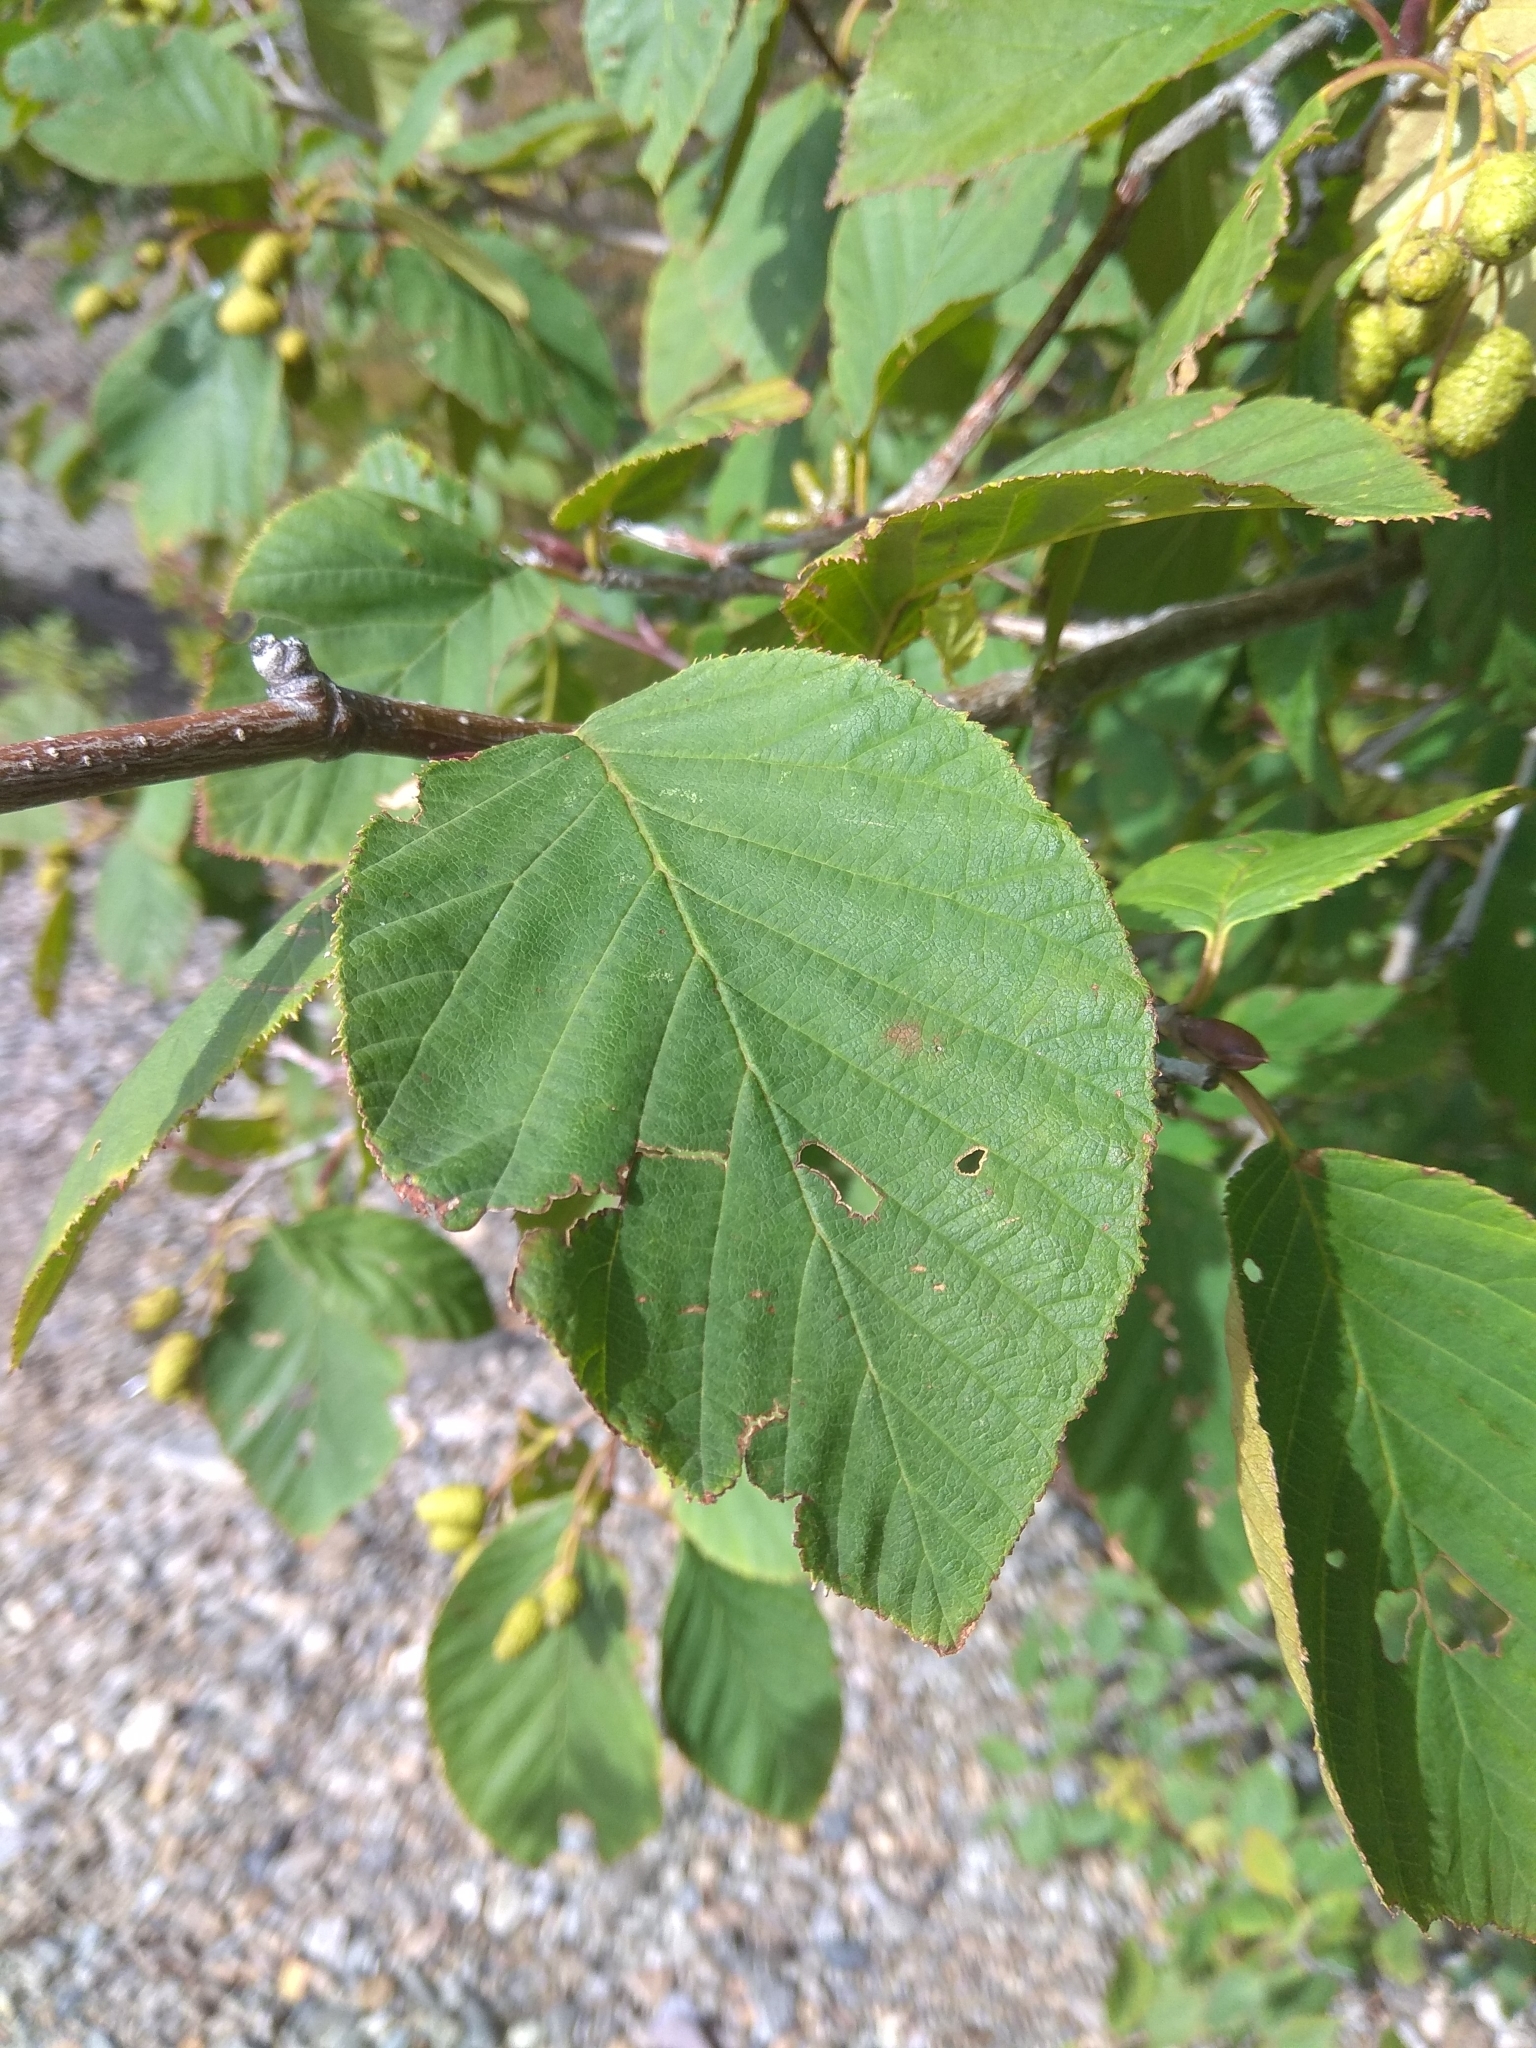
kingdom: Plantae
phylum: Tracheophyta
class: Magnoliopsida
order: Fagales
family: Betulaceae
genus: Alnus
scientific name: Alnus alnobetula
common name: Green alder
